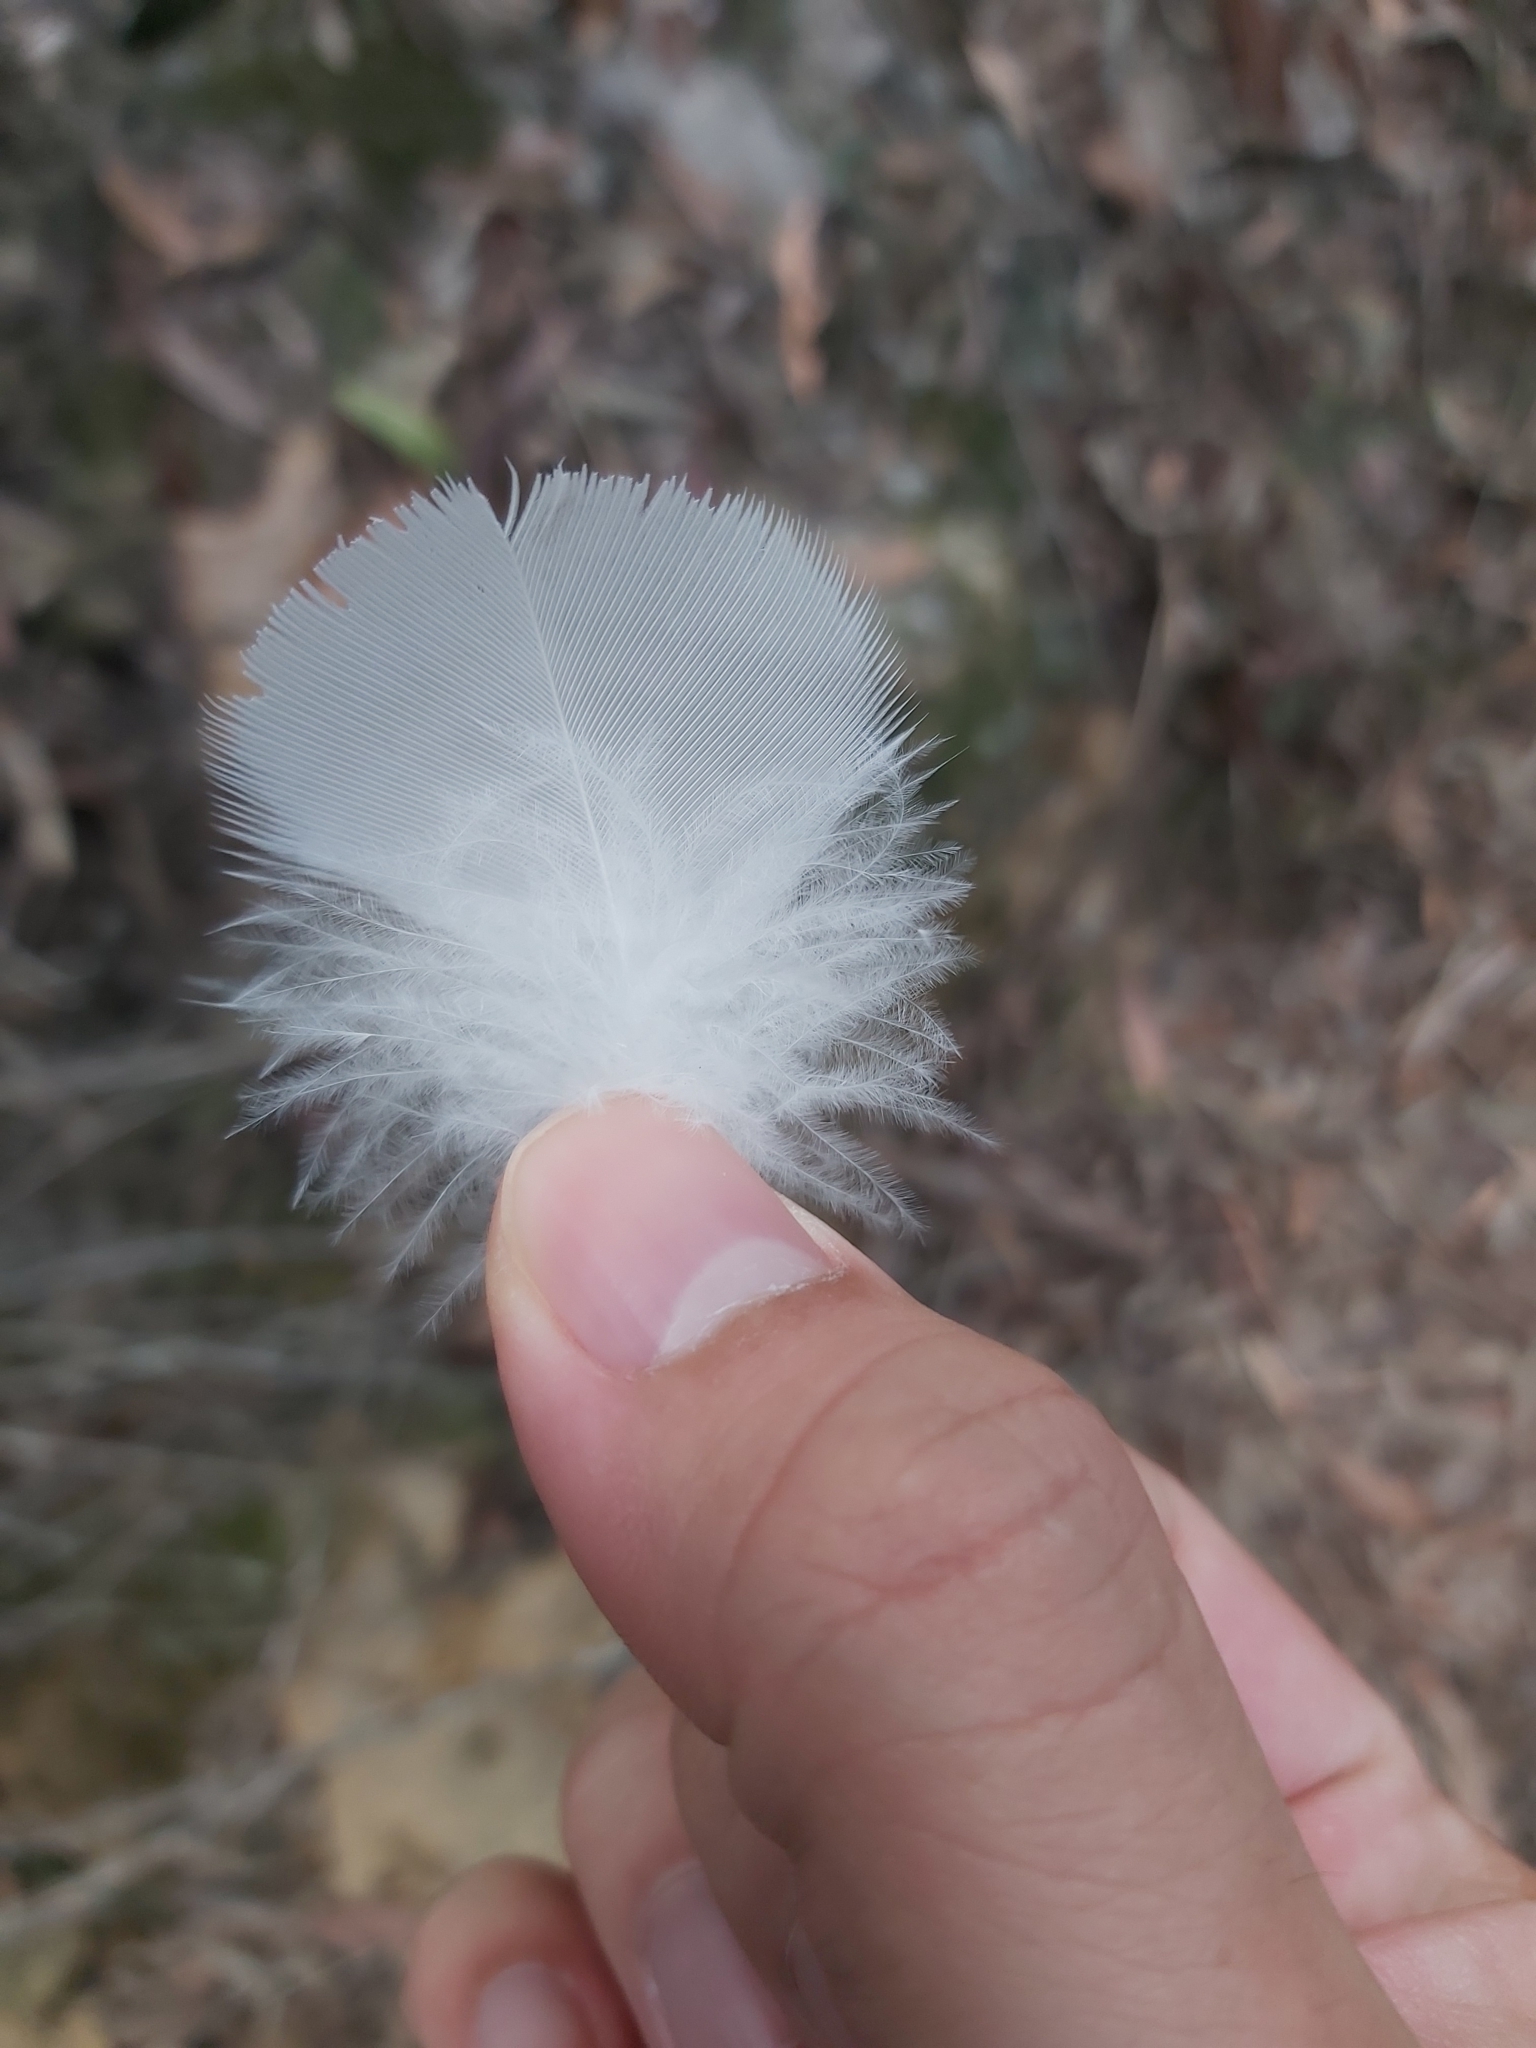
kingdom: Animalia
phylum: Chordata
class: Aves
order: Psittaciformes
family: Psittacidae
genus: Cacatua
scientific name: Cacatua galerita
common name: Sulphur-crested cockatoo
